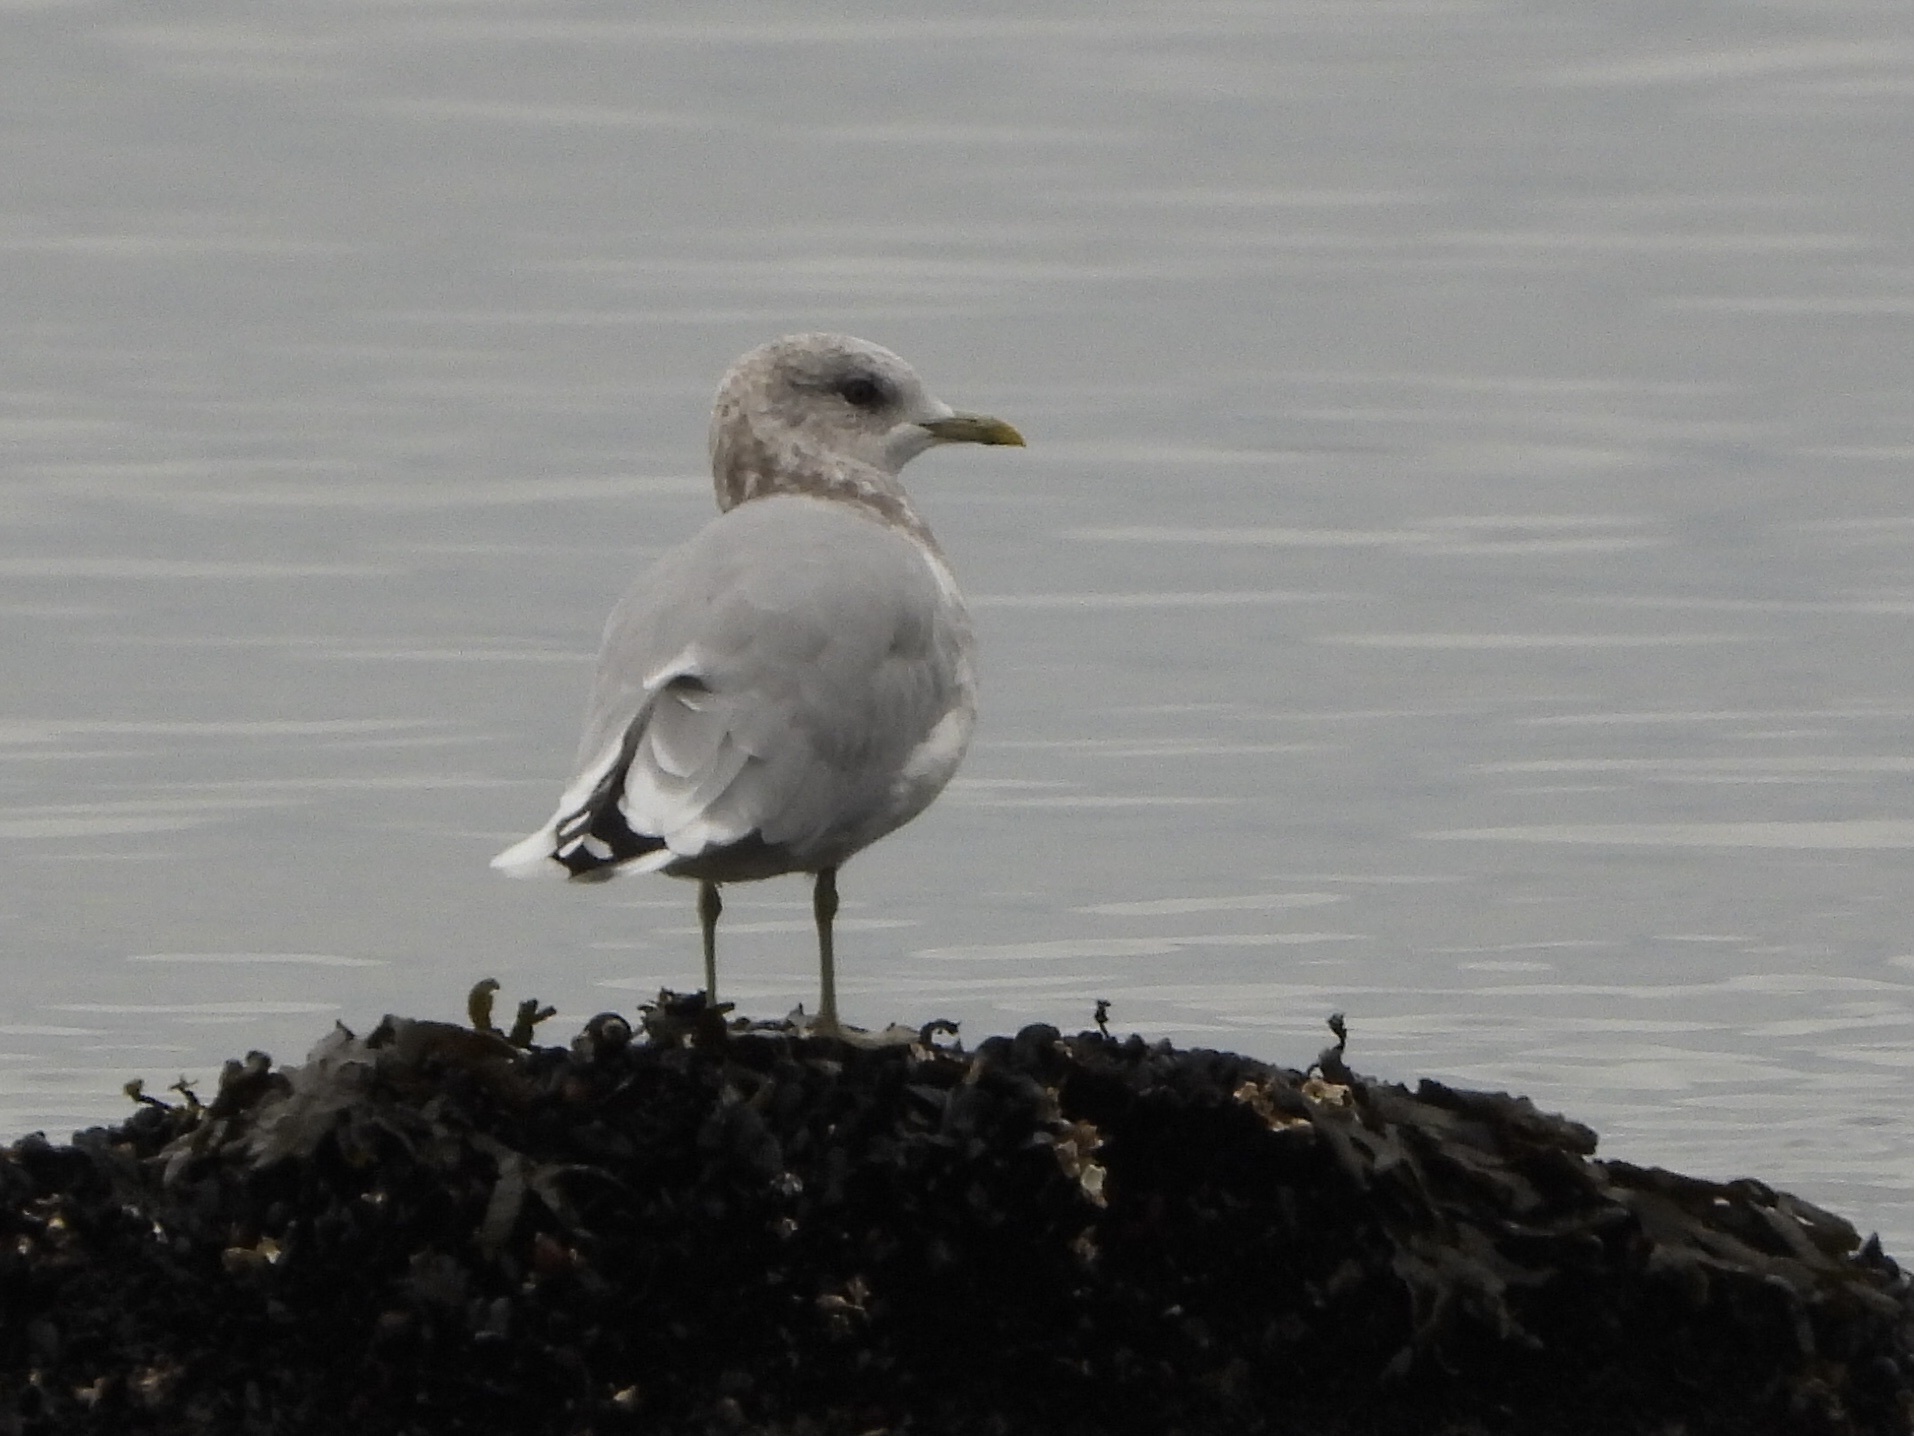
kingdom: Animalia
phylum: Chordata
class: Aves
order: Charadriiformes
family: Laridae
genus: Larus
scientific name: Larus brachyrhynchus
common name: Short-billed gull
